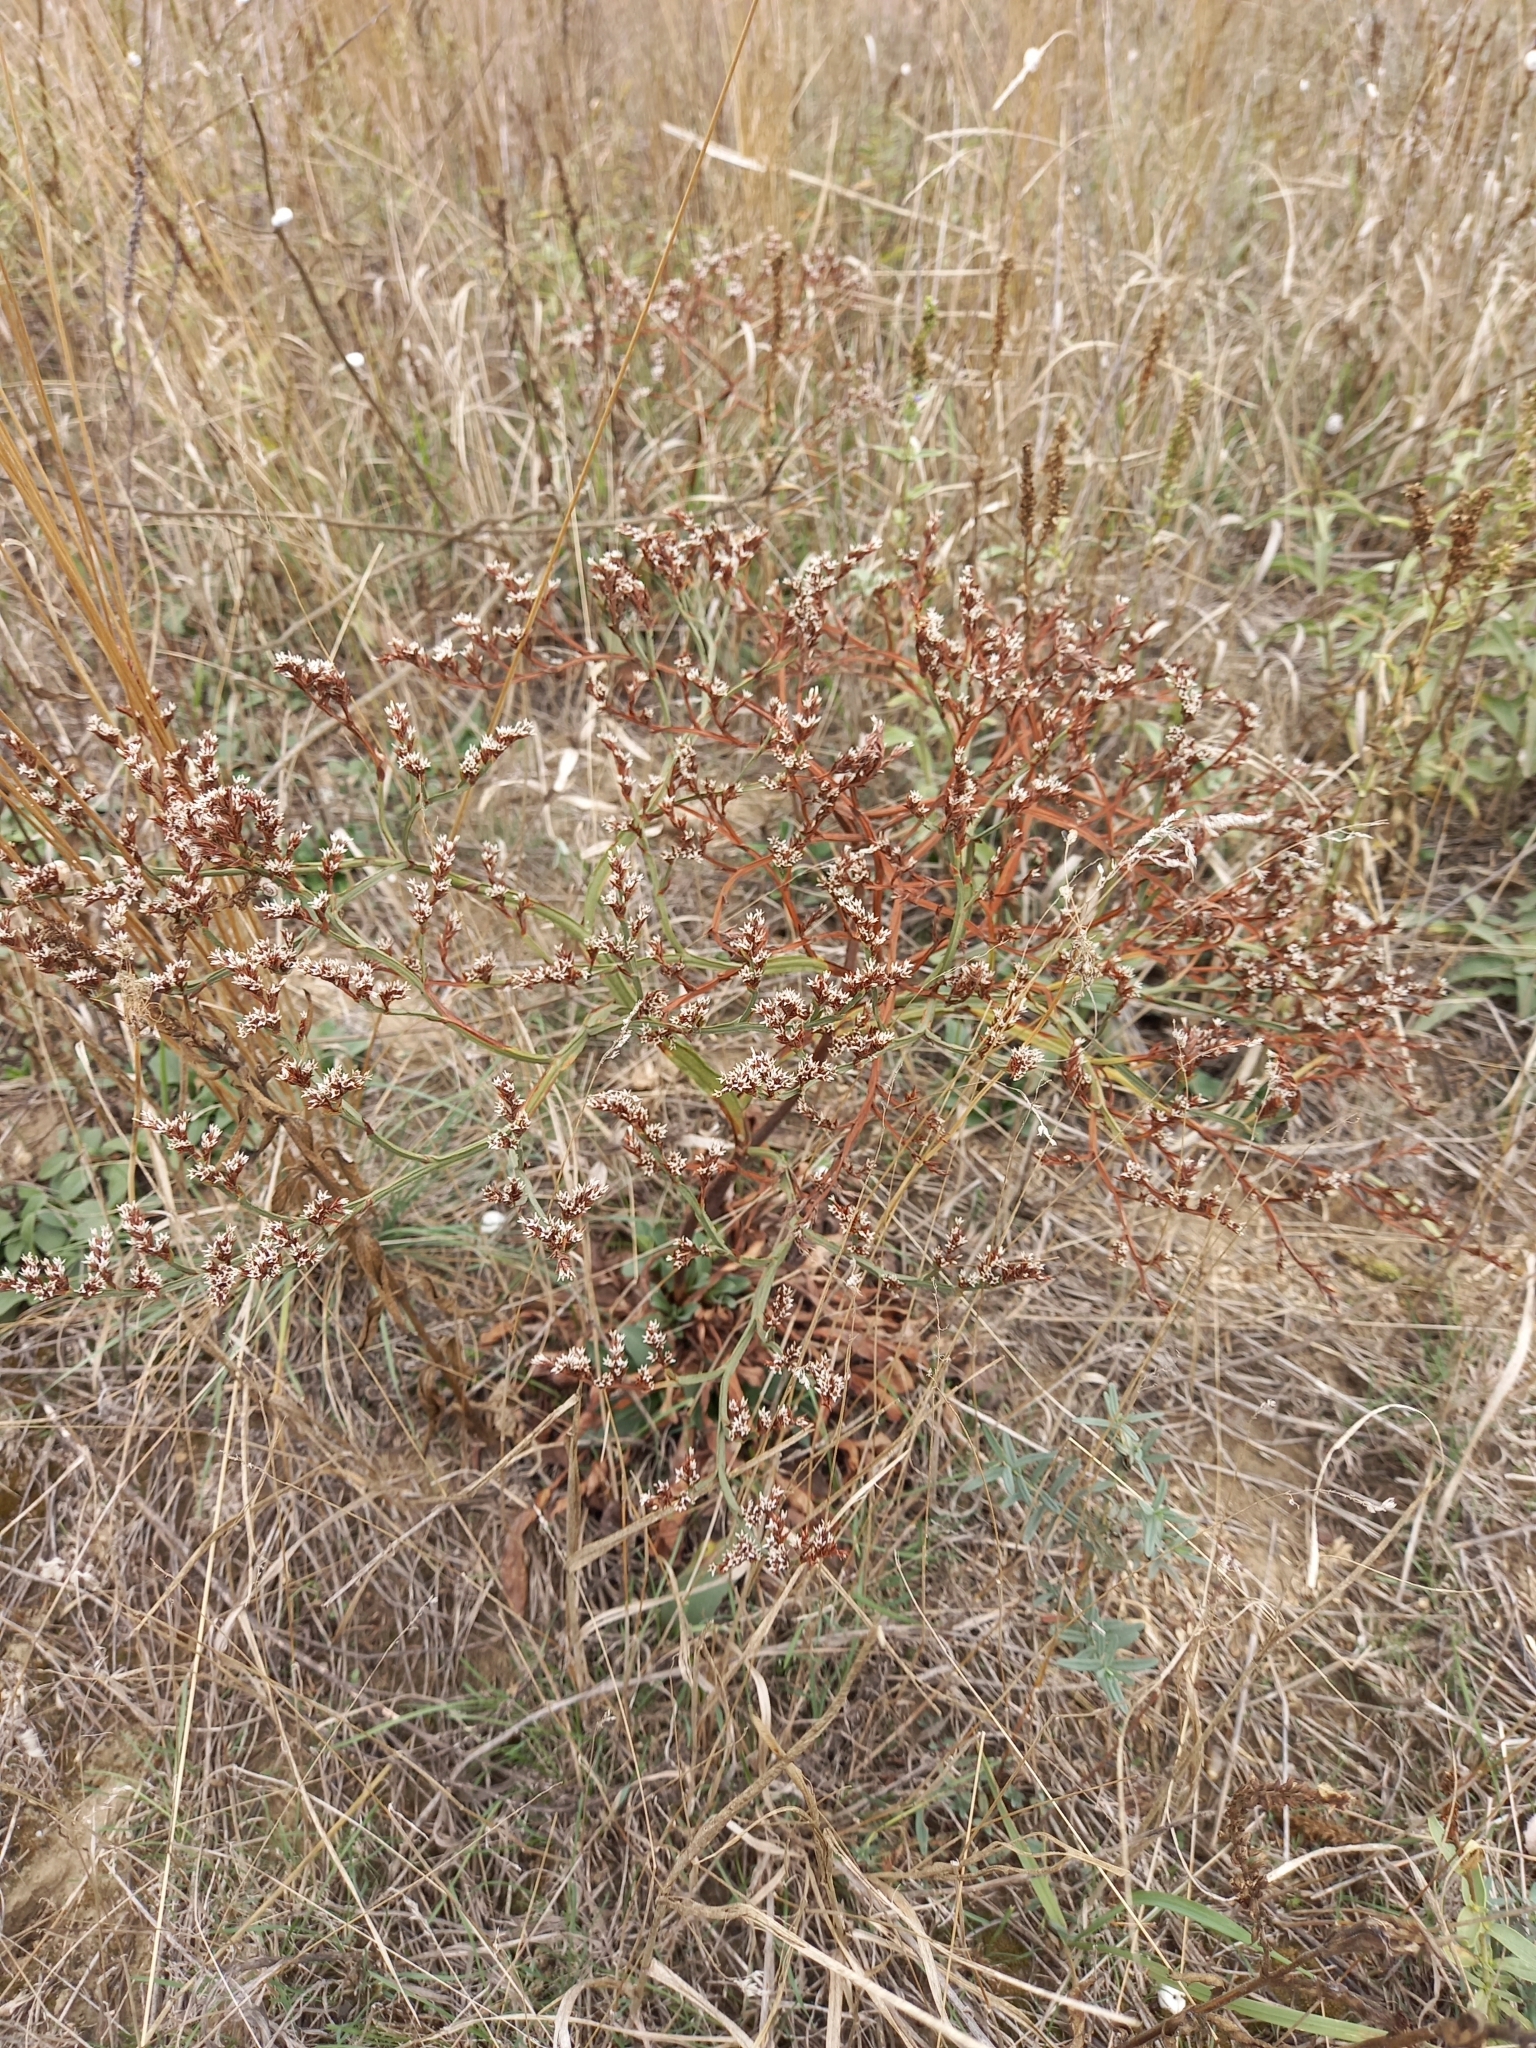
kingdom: Plantae
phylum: Tracheophyta
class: Magnoliopsida
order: Caryophyllales
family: Plumbaginaceae
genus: Goniolimon
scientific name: Goniolimon tataricum
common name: Statice
